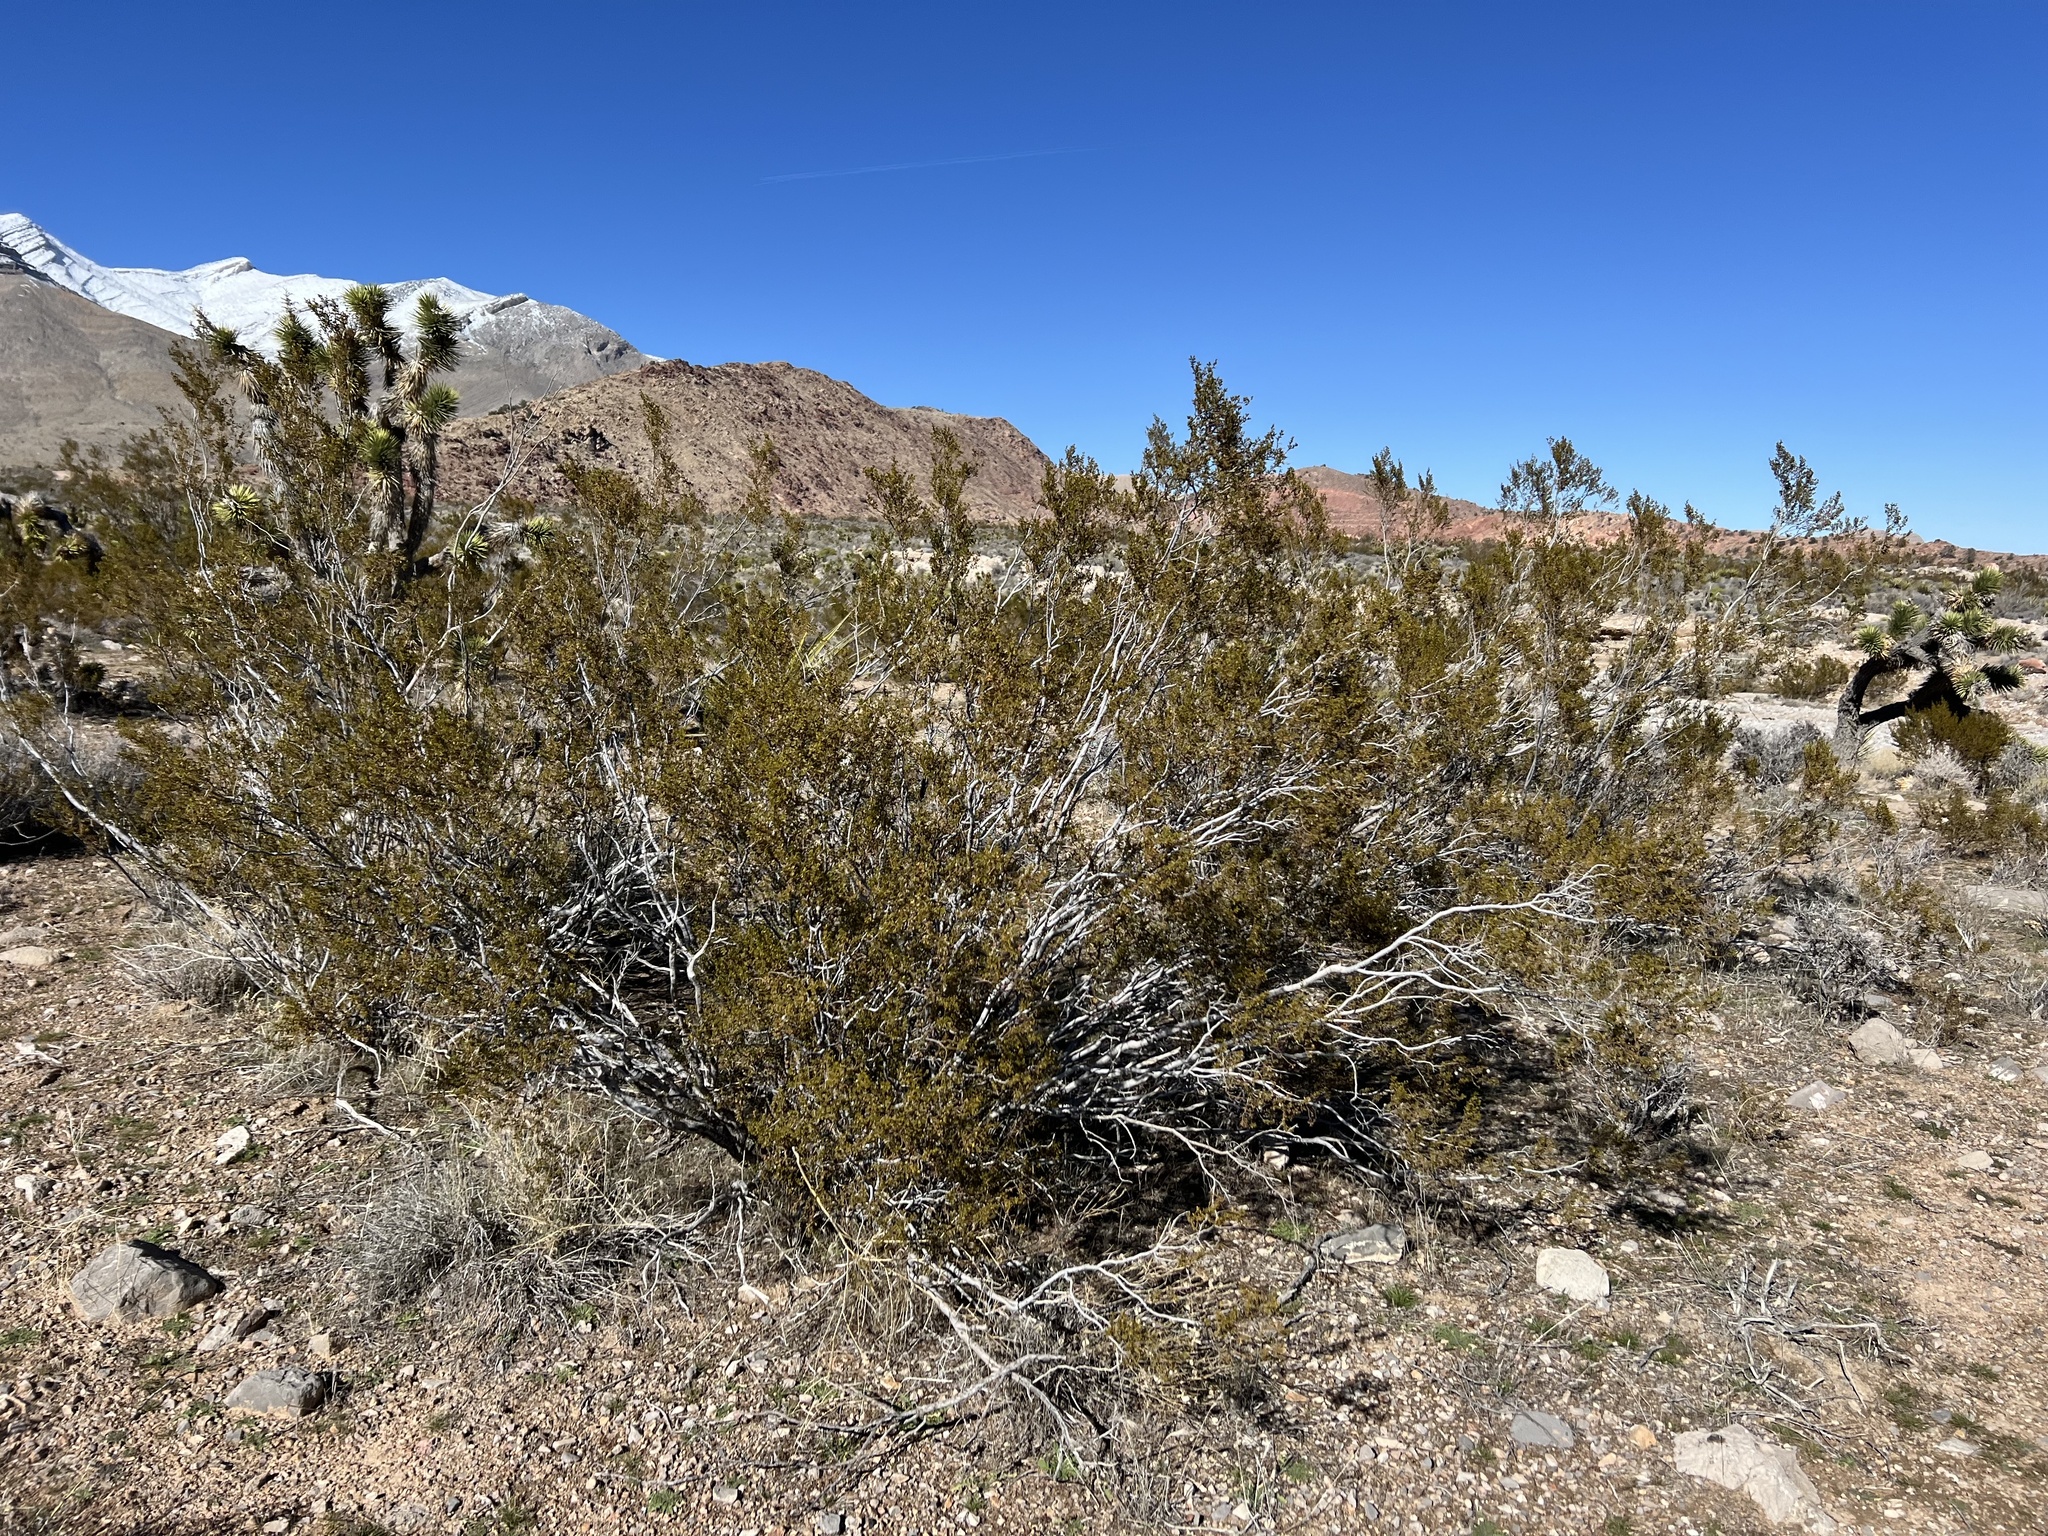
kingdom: Plantae
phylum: Tracheophyta
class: Magnoliopsida
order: Zygophyllales
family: Zygophyllaceae
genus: Larrea
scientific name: Larrea tridentata
